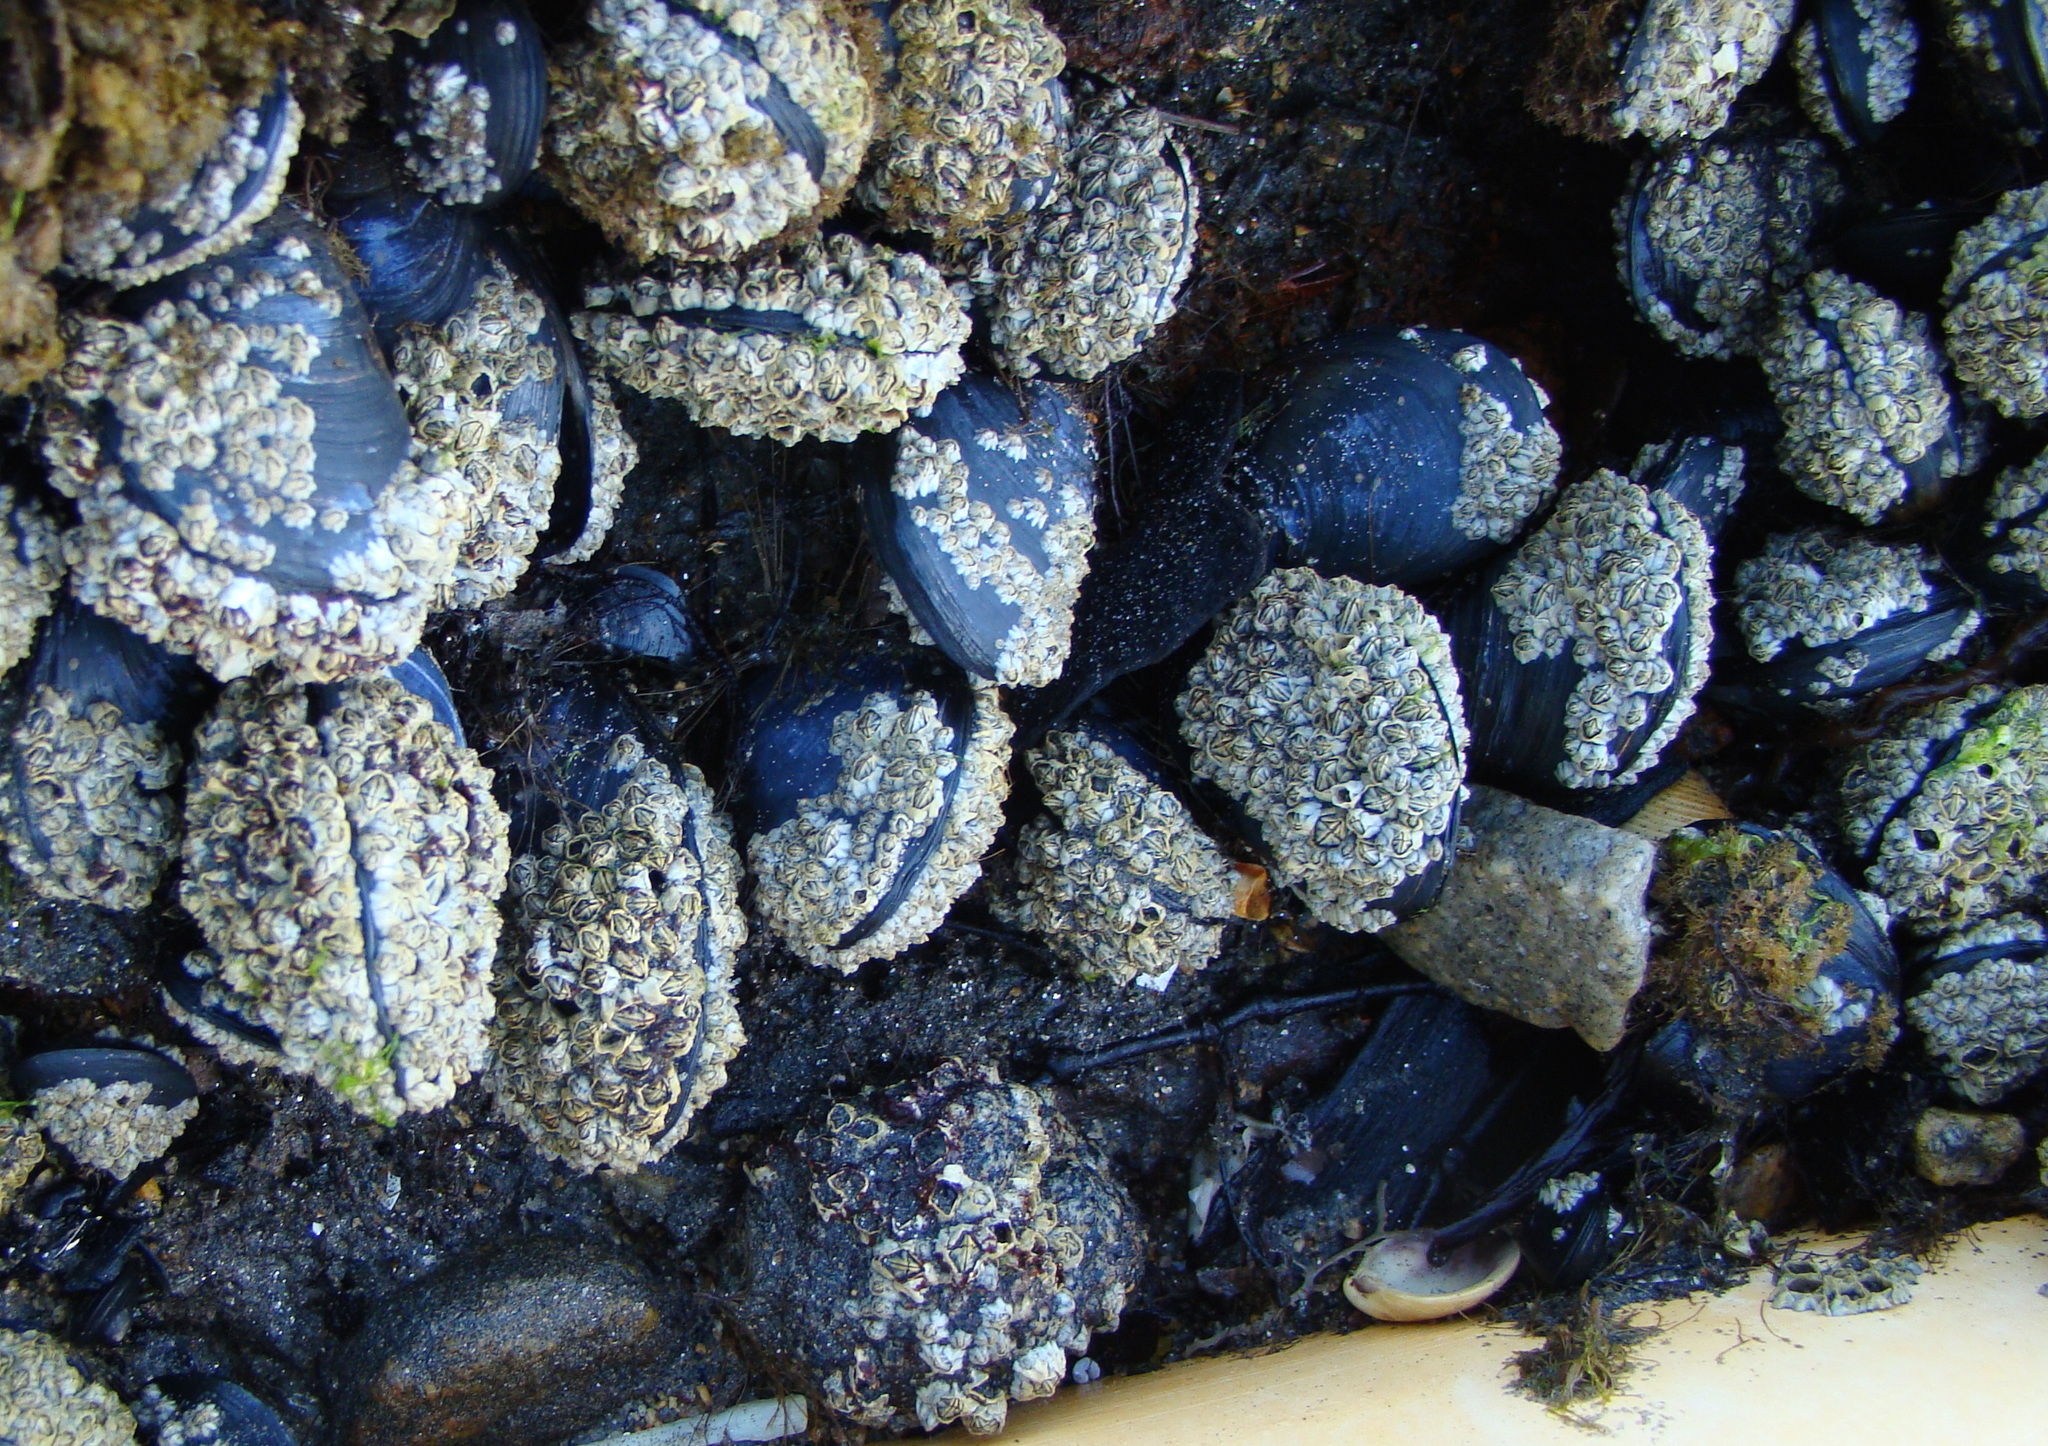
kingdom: Animalia
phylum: Mollusca
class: Bivalvia
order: Mytilida
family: Mytilidae
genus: Mytilus
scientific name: Mytilus planulatus
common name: Australian mussel
